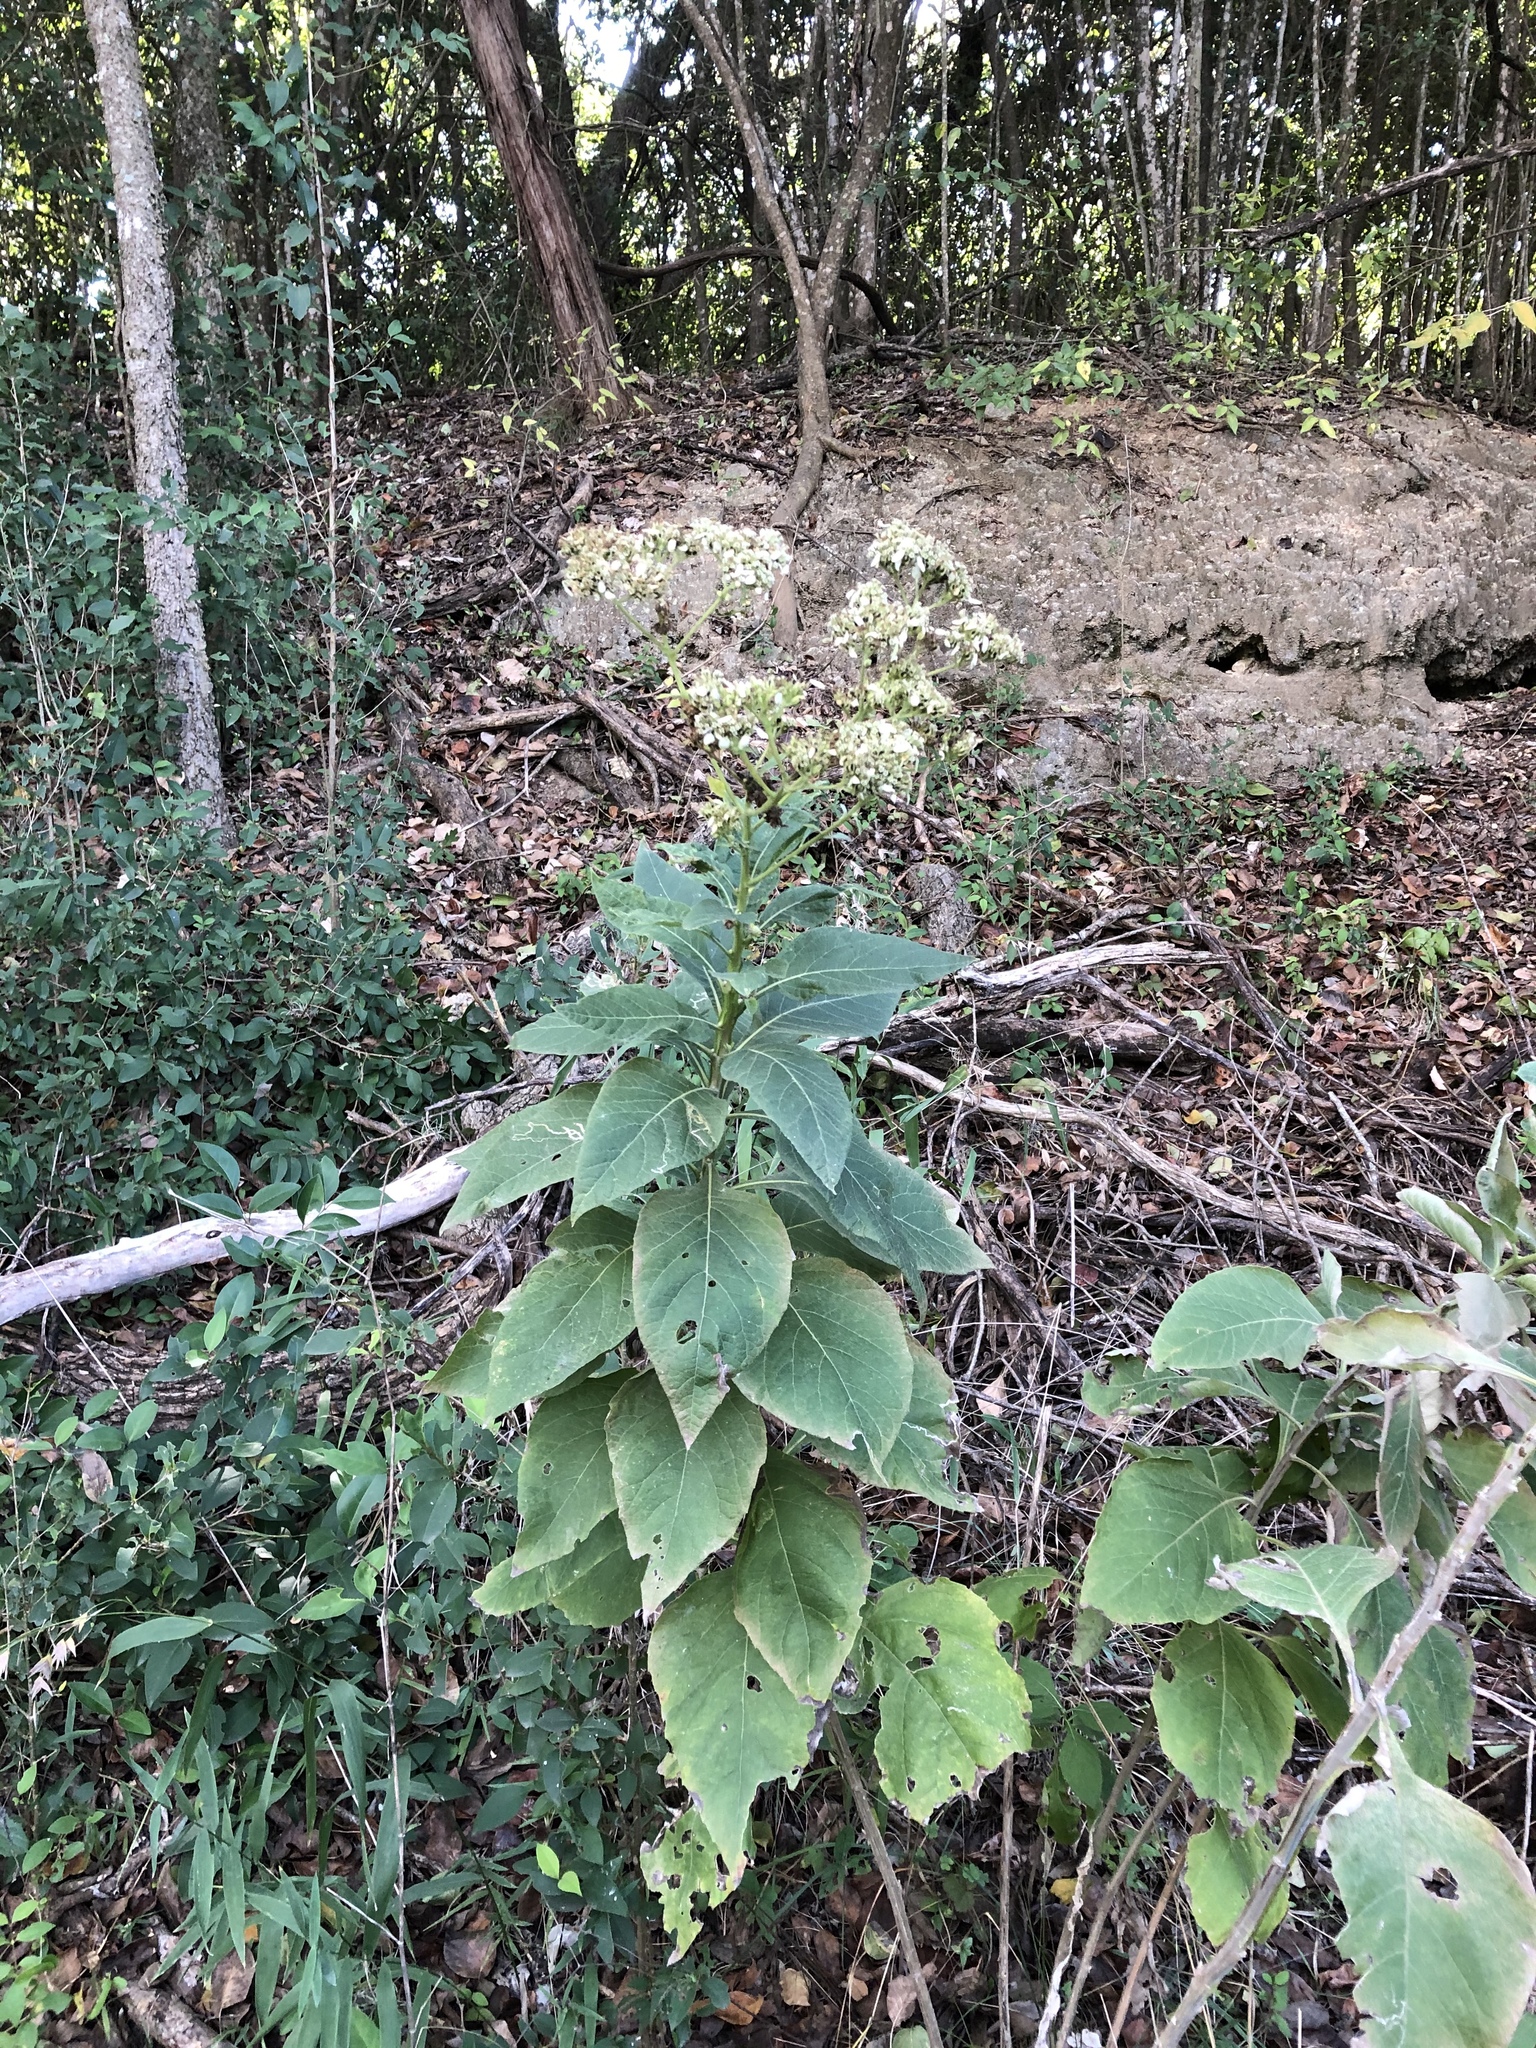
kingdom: Plantae
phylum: Tracheophyta
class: Magnoliopsida
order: Asterales
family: Asteraceae
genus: Verbesina
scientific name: Verbesina virginica
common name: Frostweed
